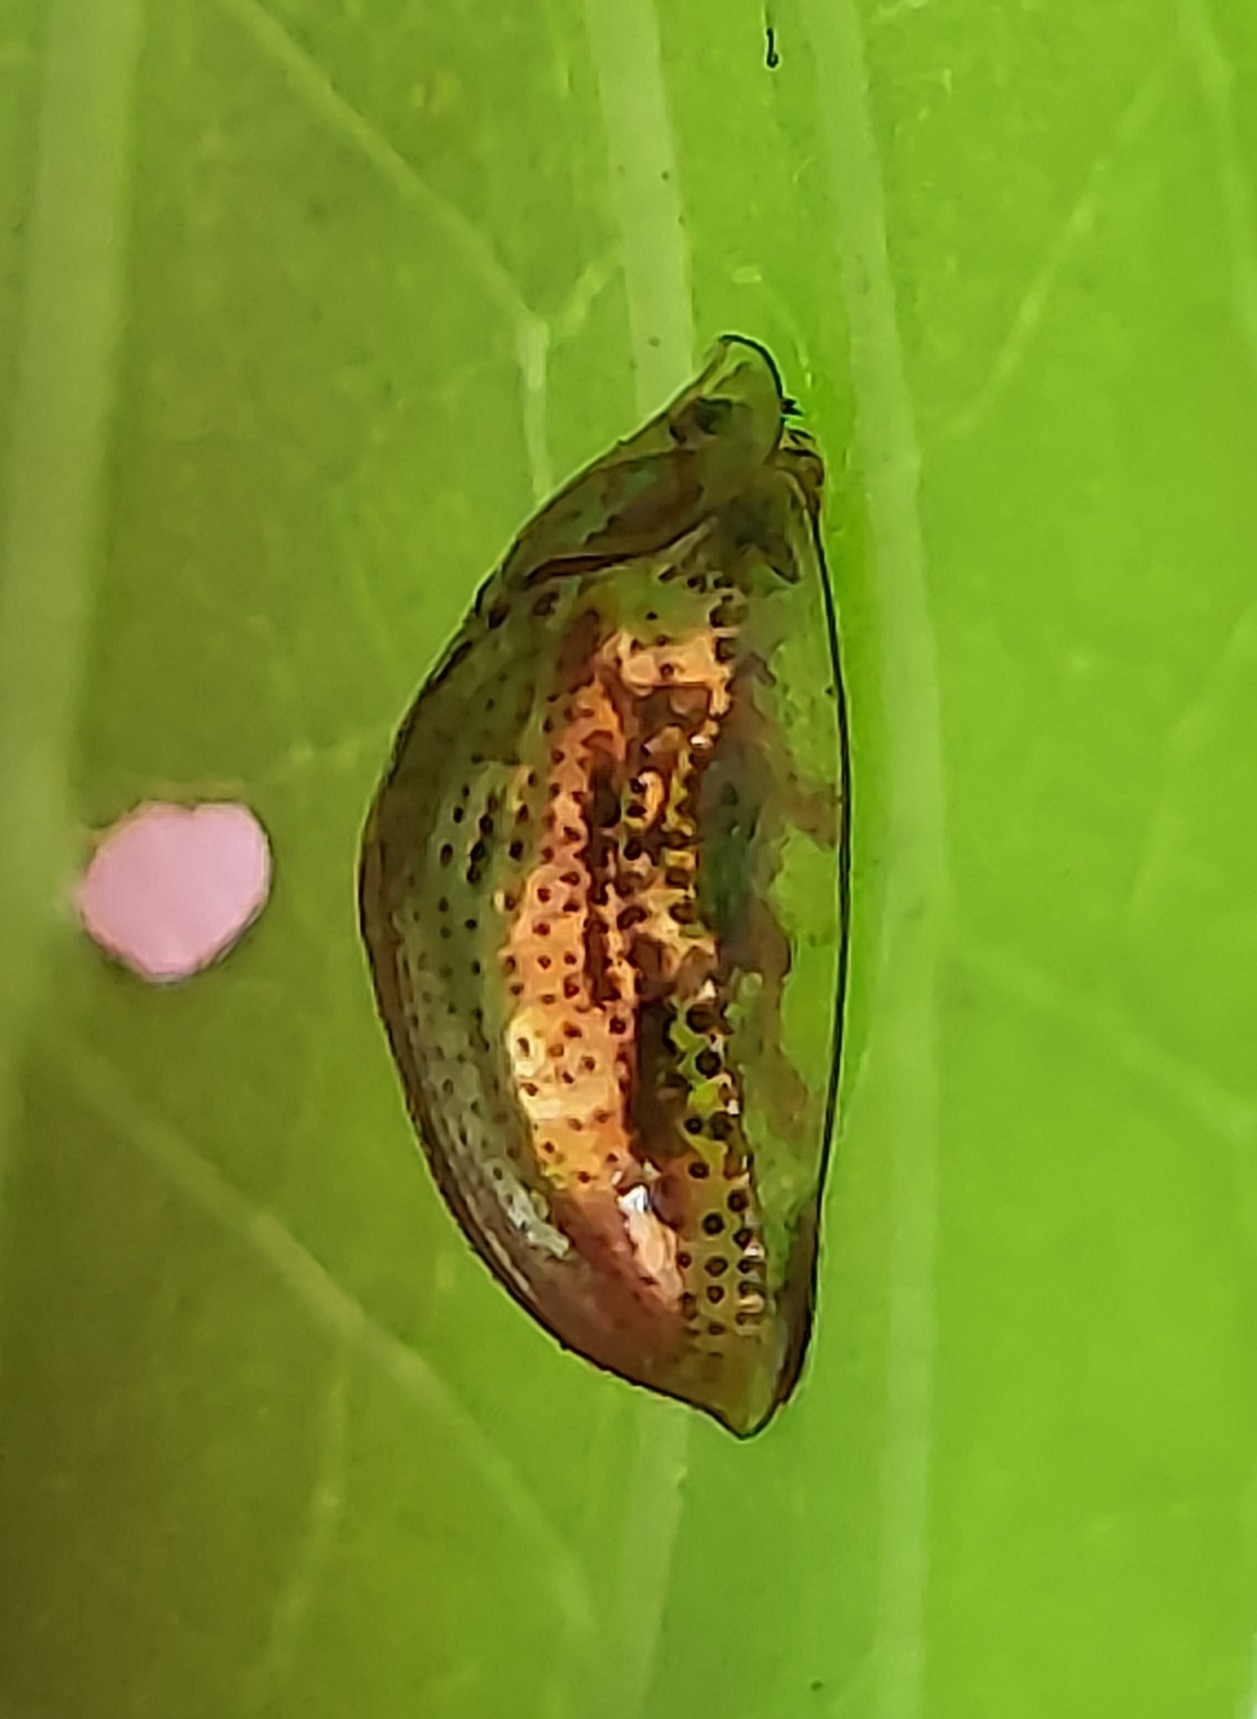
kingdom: Animalia
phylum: Arthropoda
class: Insecta
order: Coleoptera
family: Chrysomelidae
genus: Charidotella
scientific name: Charidotella sexpunctata
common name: Golden tortoise beetle
